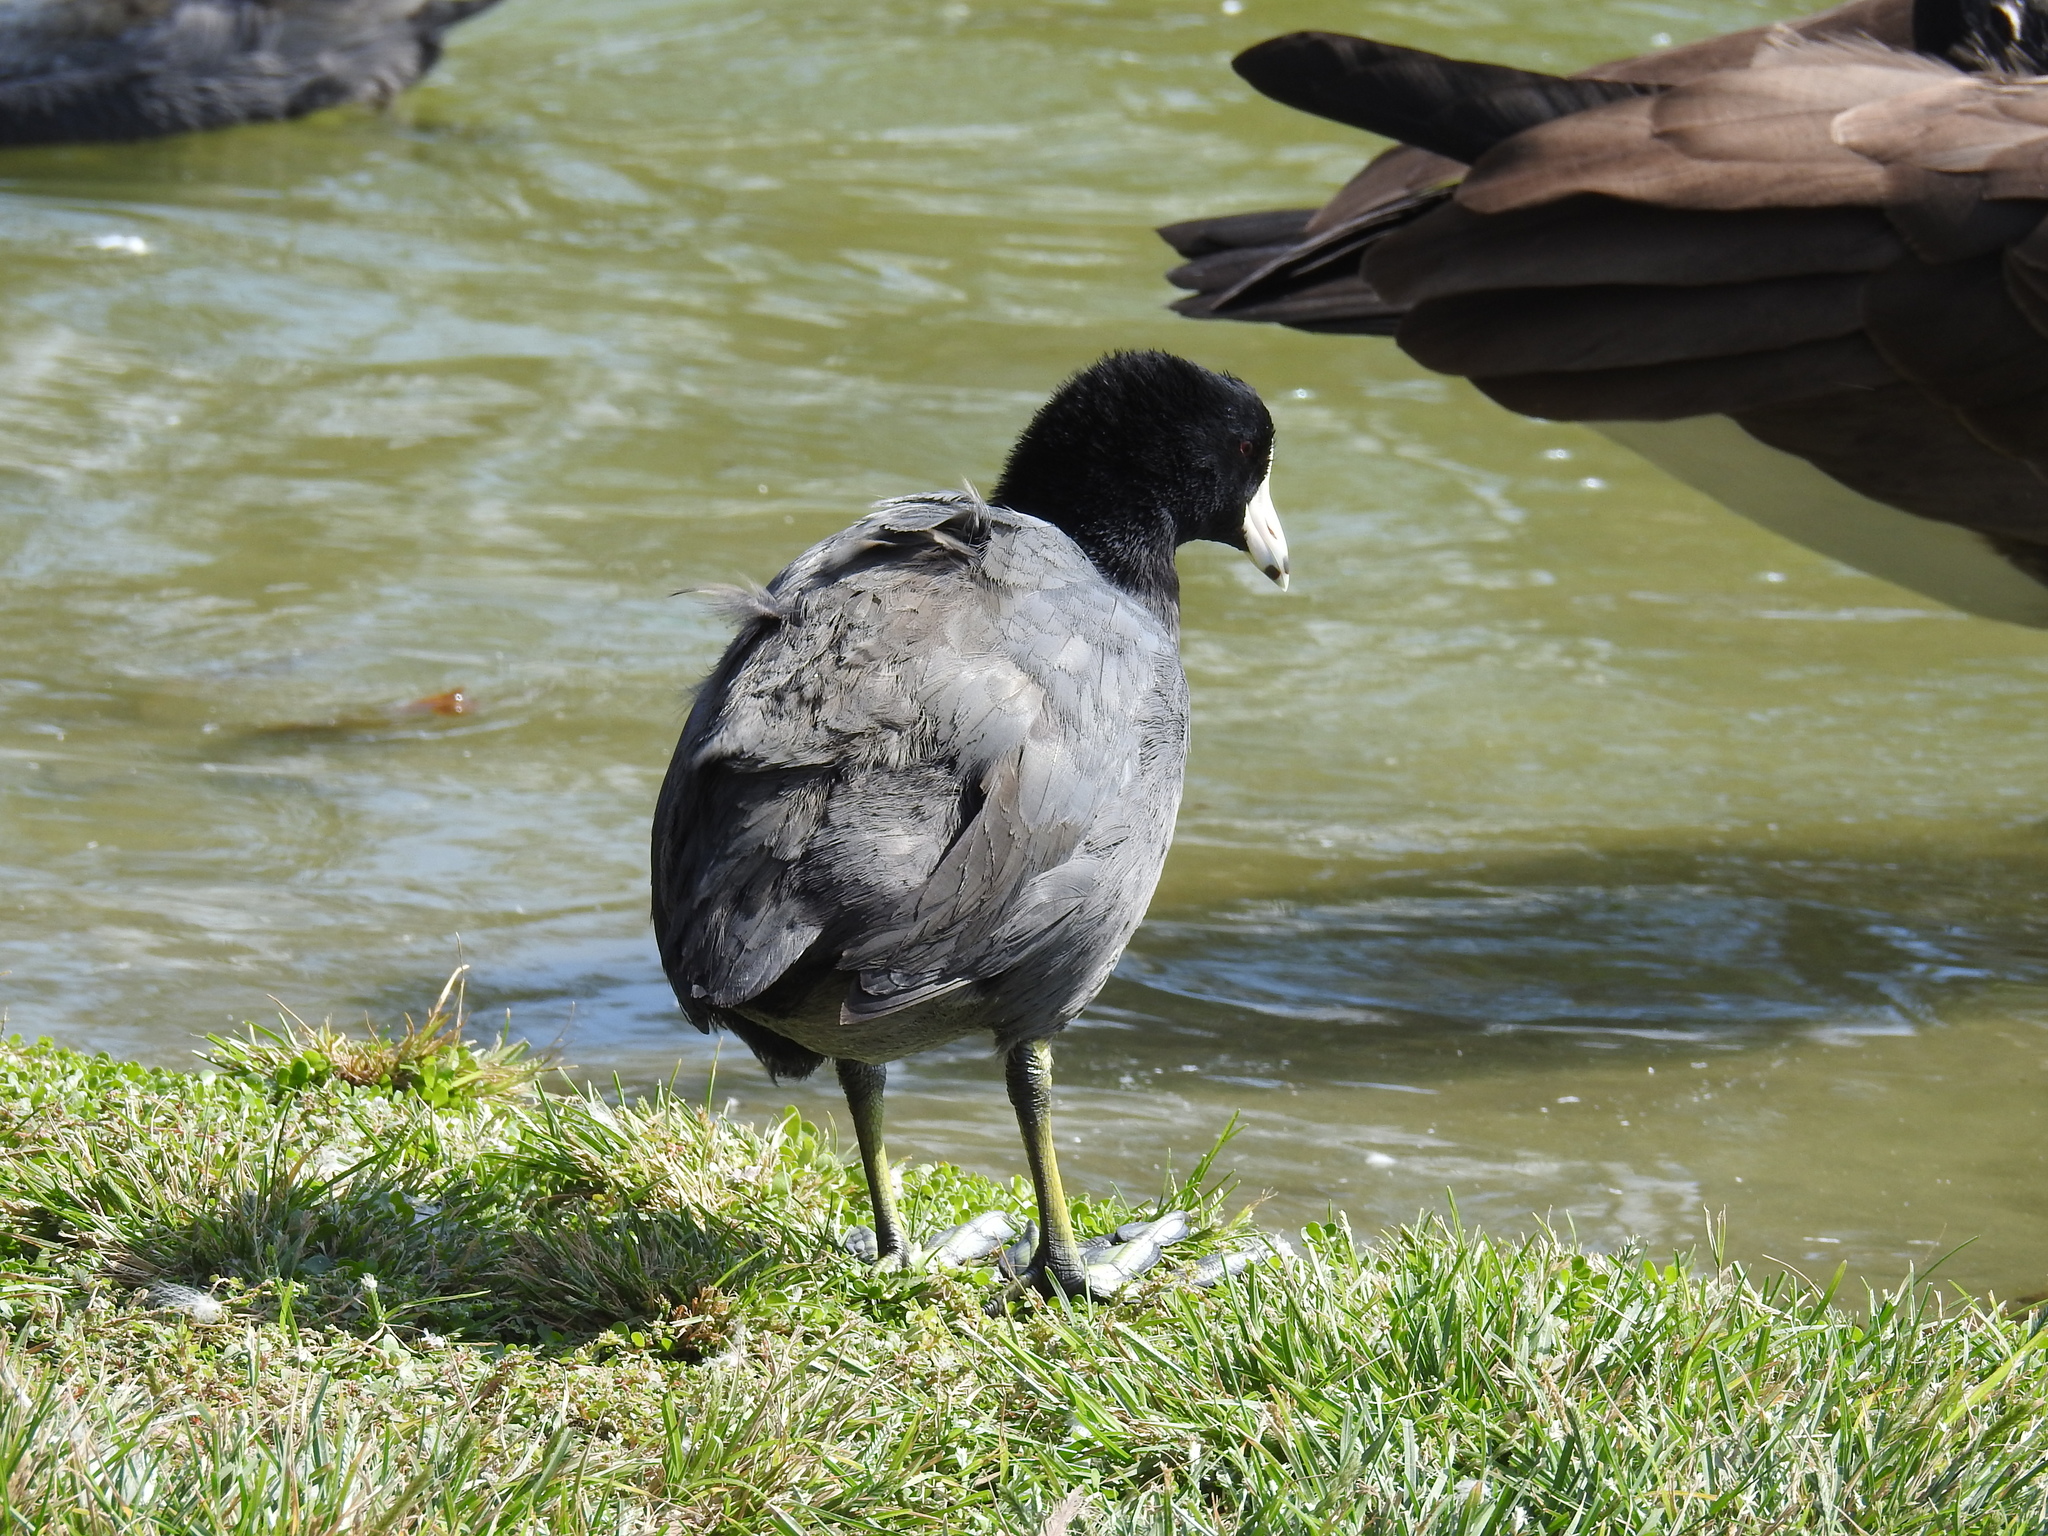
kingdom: Animalia
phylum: Chordata
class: Aves
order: Gruiformes
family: Rallidae
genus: Fulica
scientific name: Fulica americana
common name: American coot
